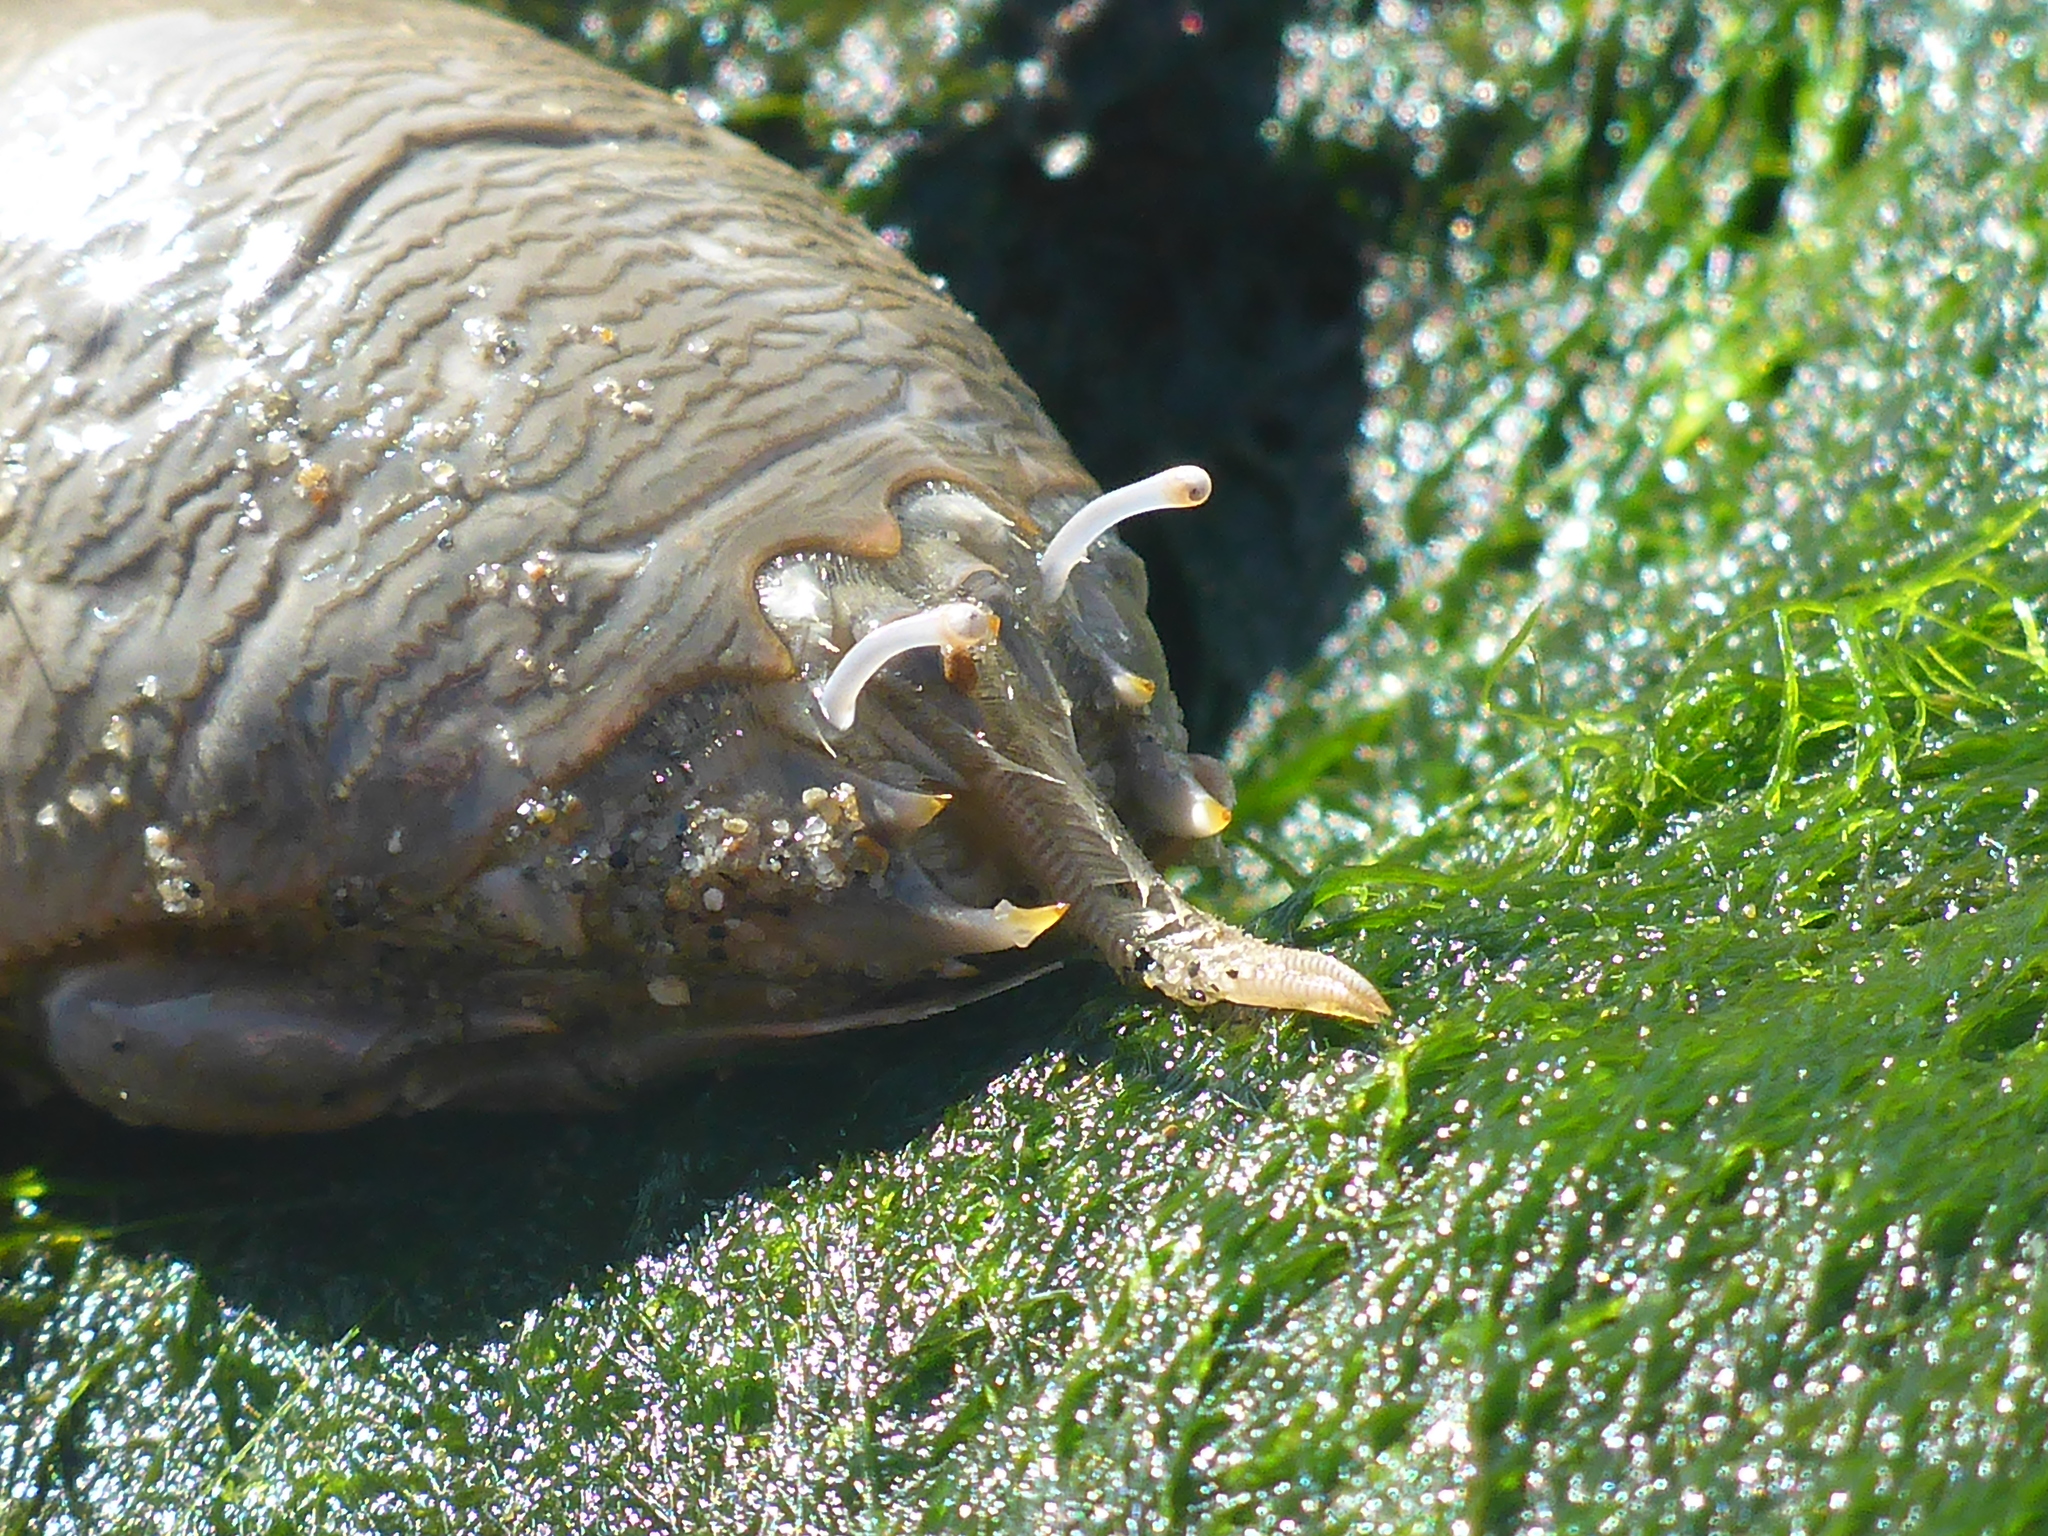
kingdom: Animalia
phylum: Arthropoda
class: Malacostraca
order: Decapoda
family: Hippidae
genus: Emerita
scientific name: Emerita analoga
